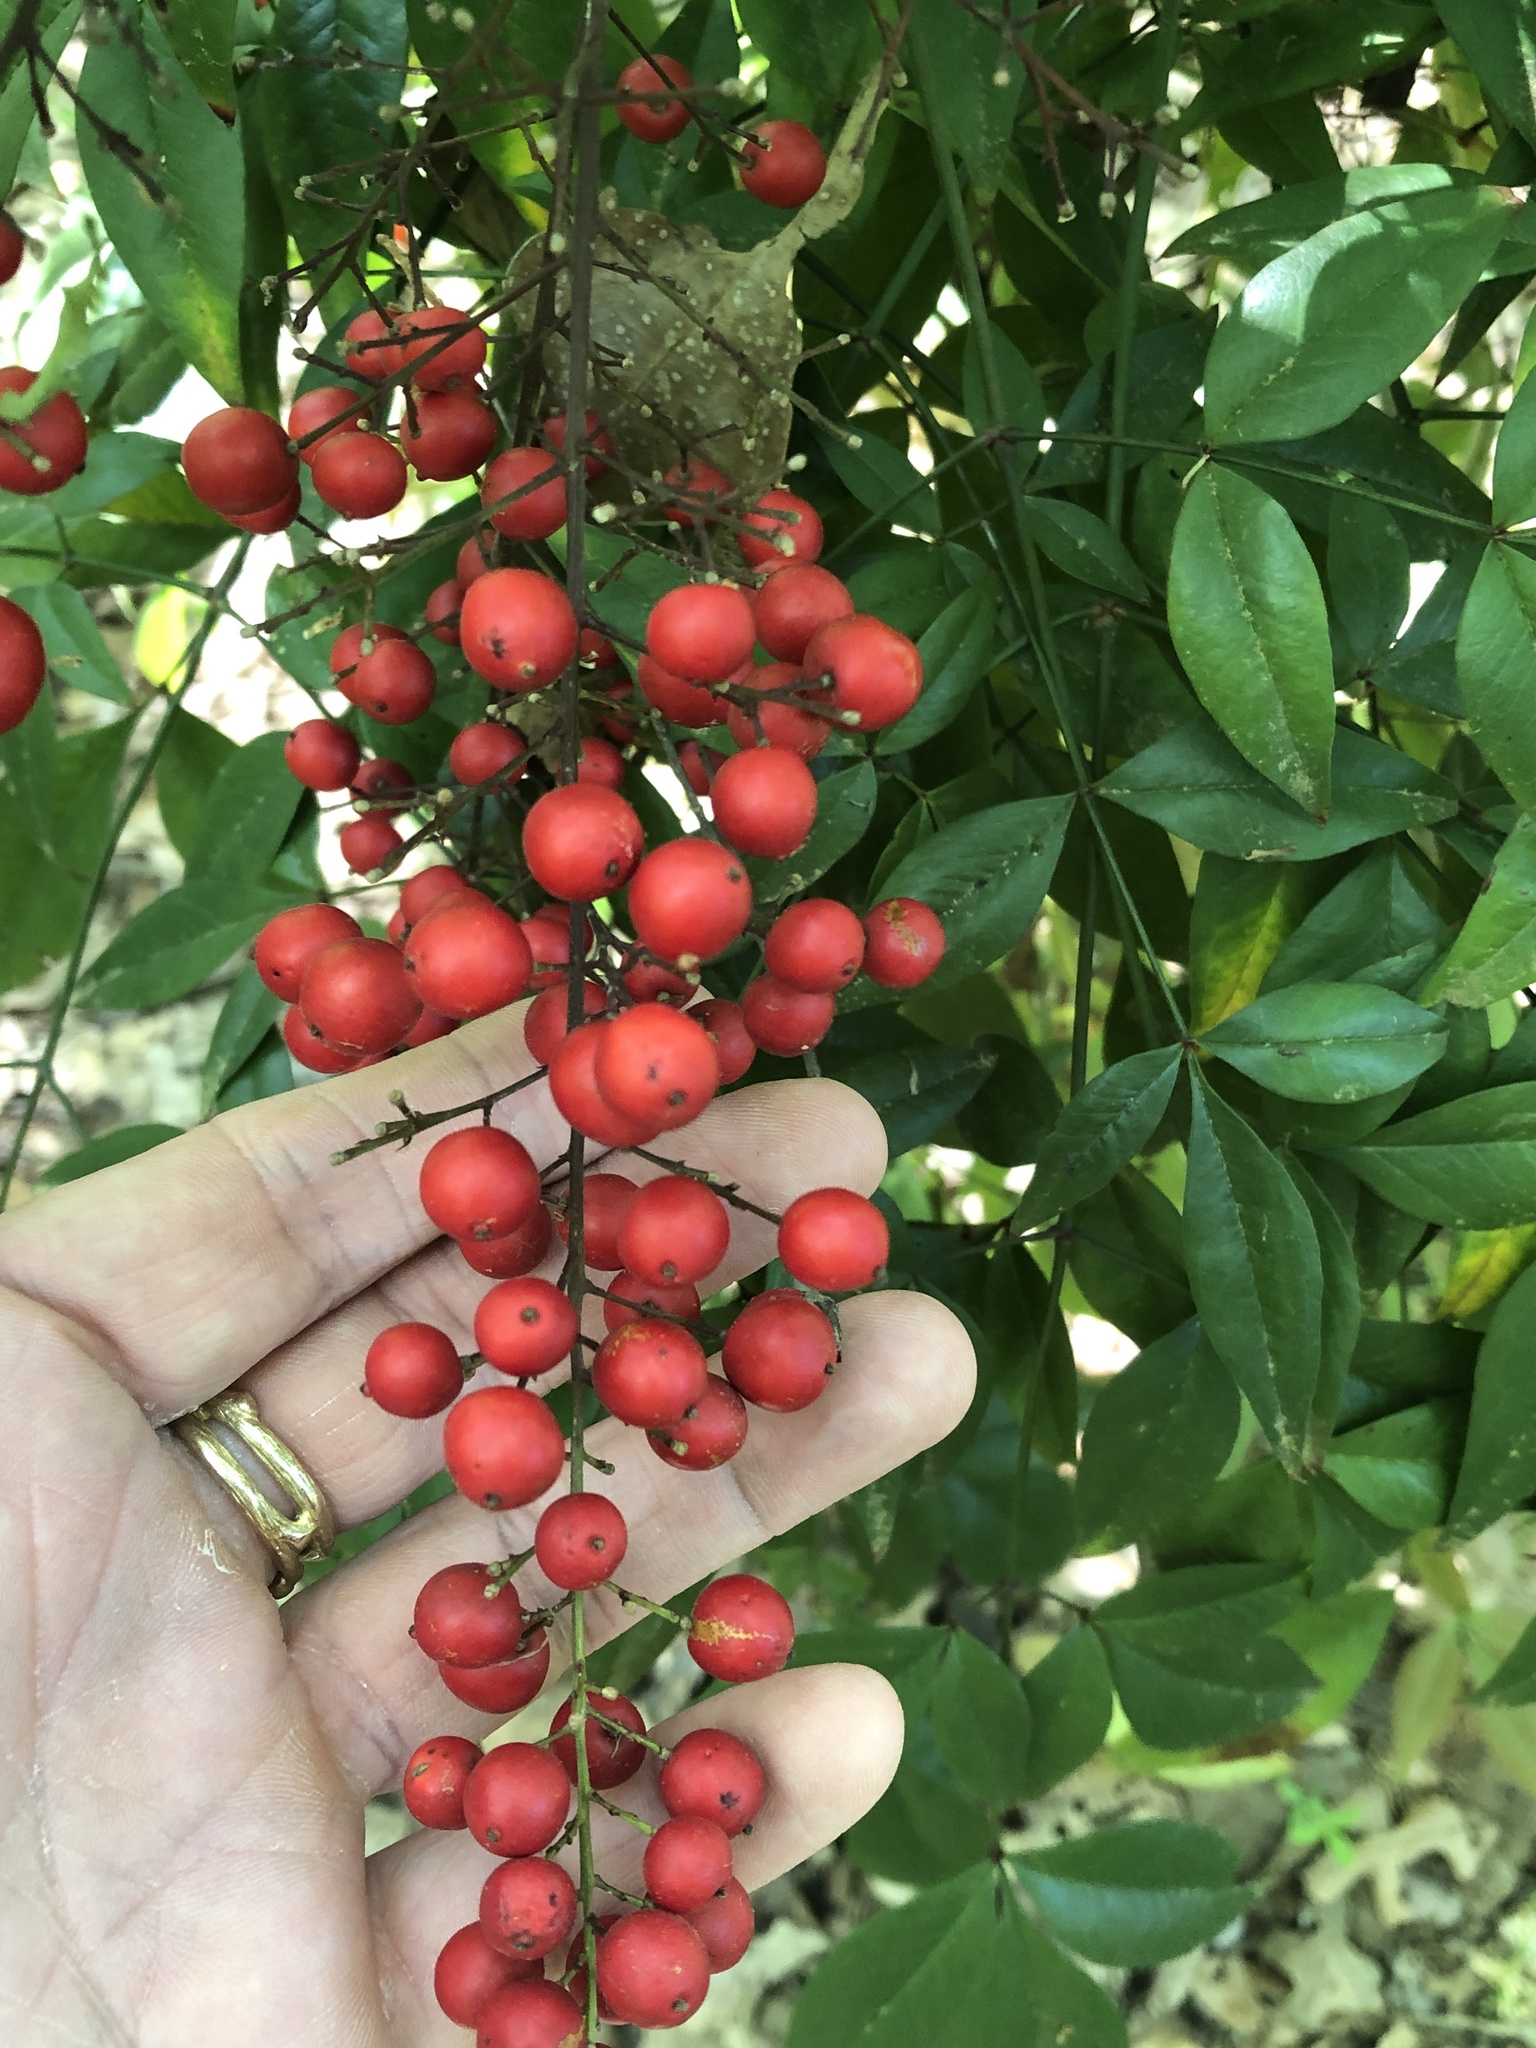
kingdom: Plantae
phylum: Tracheophyta
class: Magnoliopsida
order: Ranunculales
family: Berberidaceae
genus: Nandina
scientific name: Nandina domestica
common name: Sacred bamboo
